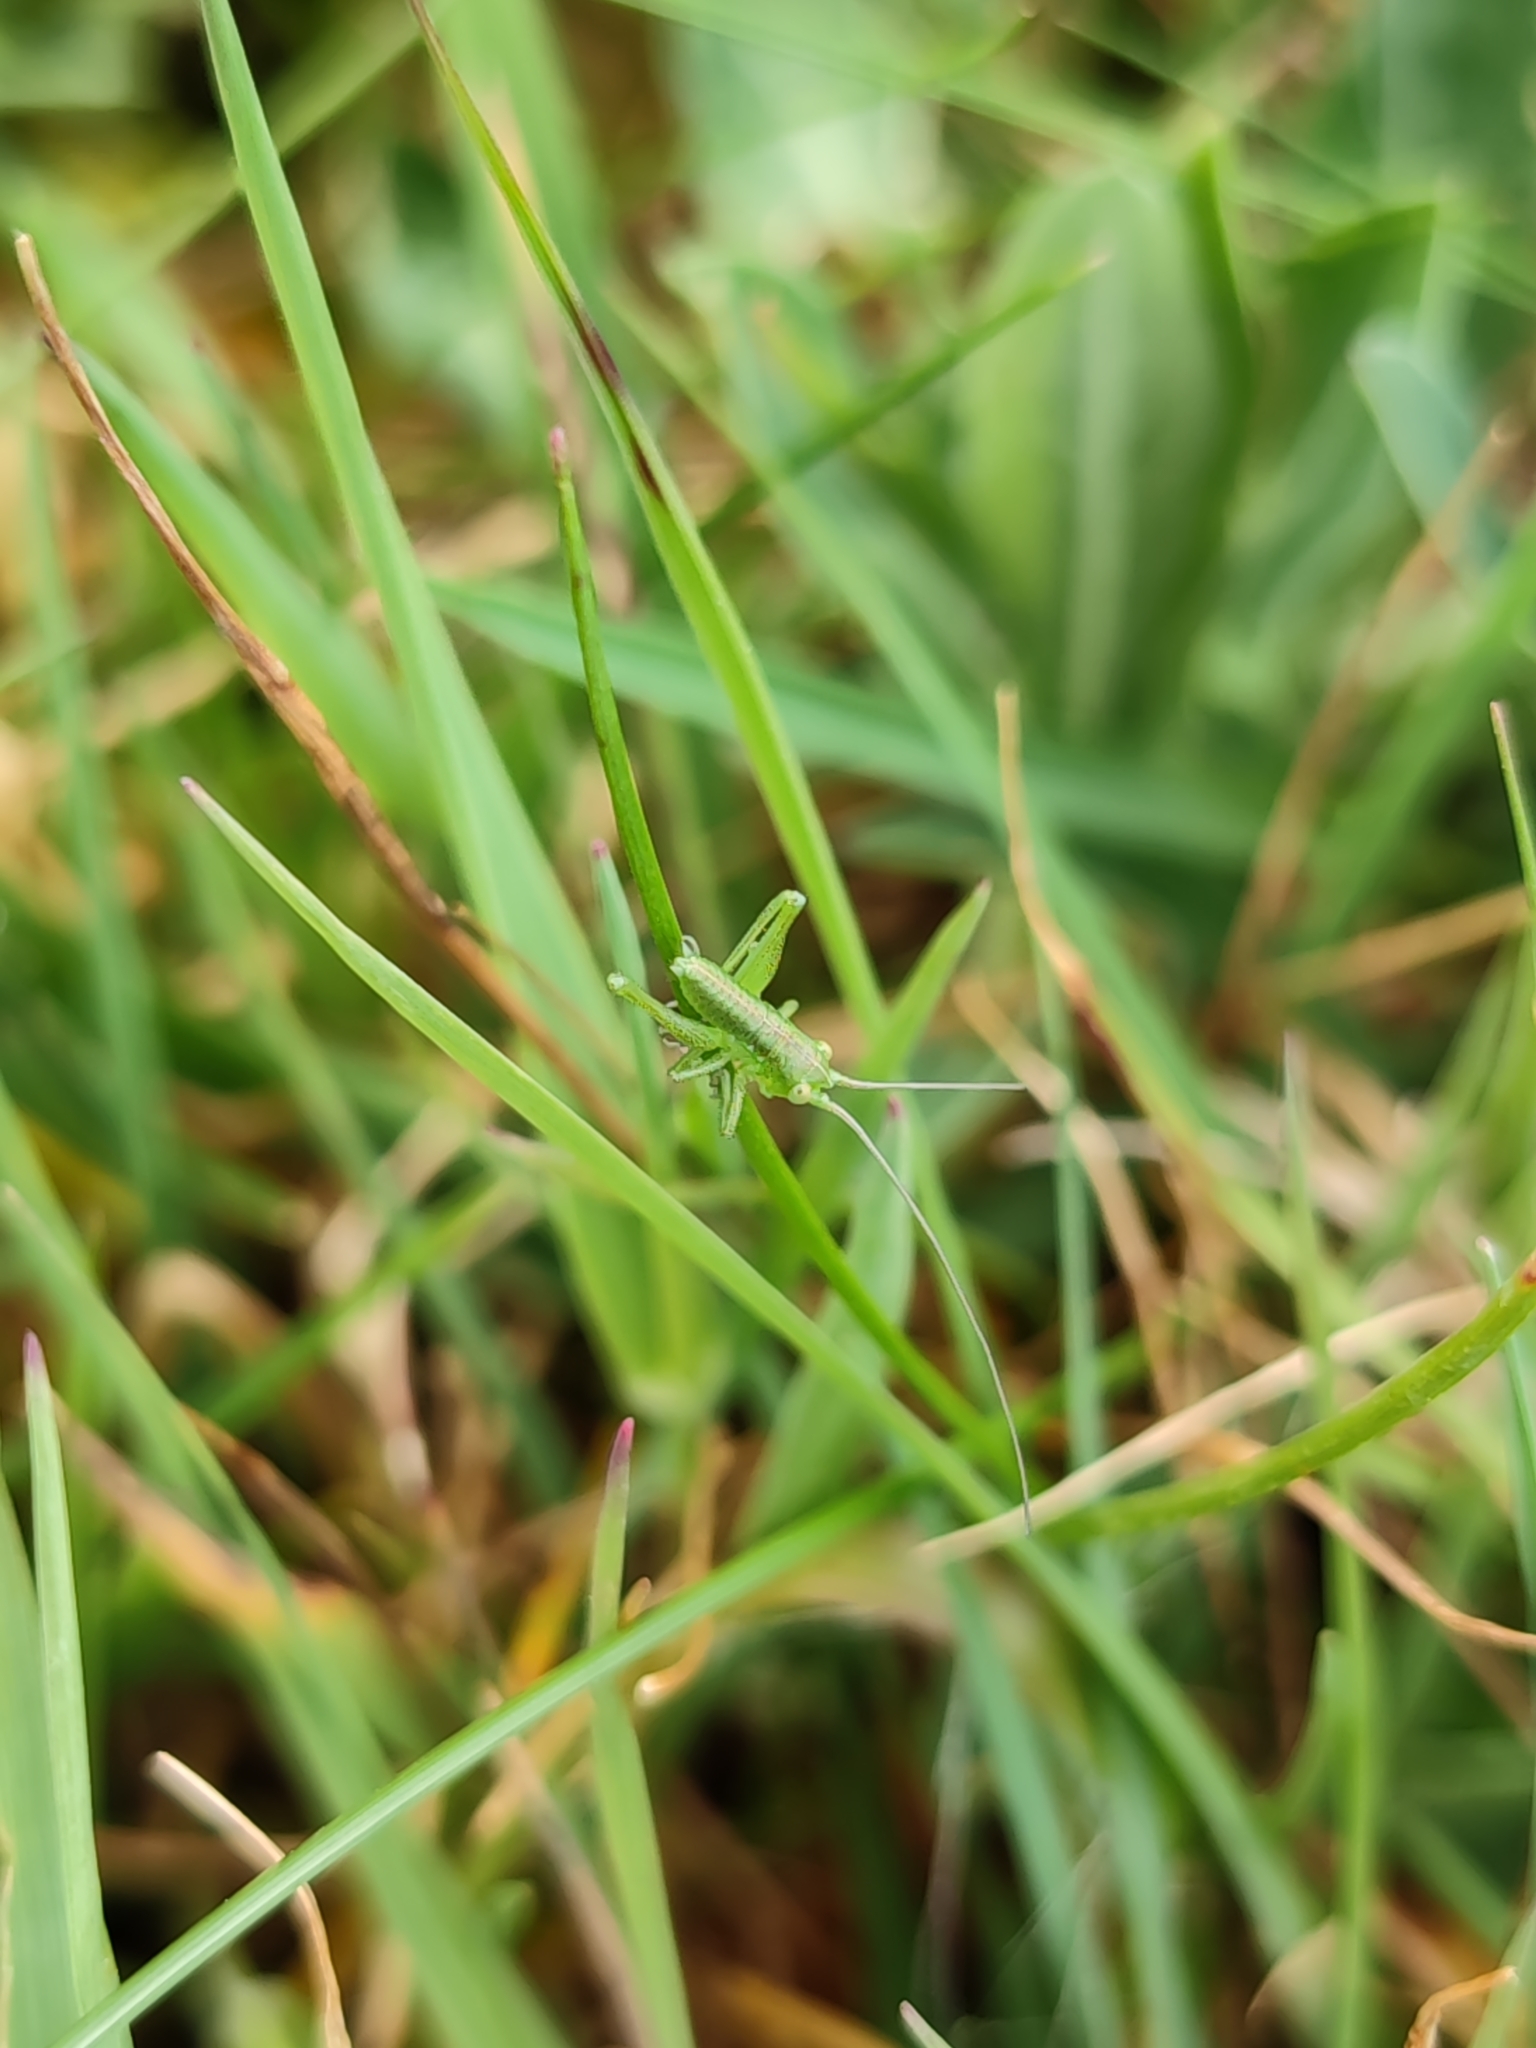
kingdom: Animalia
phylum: Arthropoda
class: Insecta
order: Orthoptera
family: Tettigoniidae
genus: Tettigonia
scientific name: Tettigonia viridissima
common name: Great green bush-cricket
